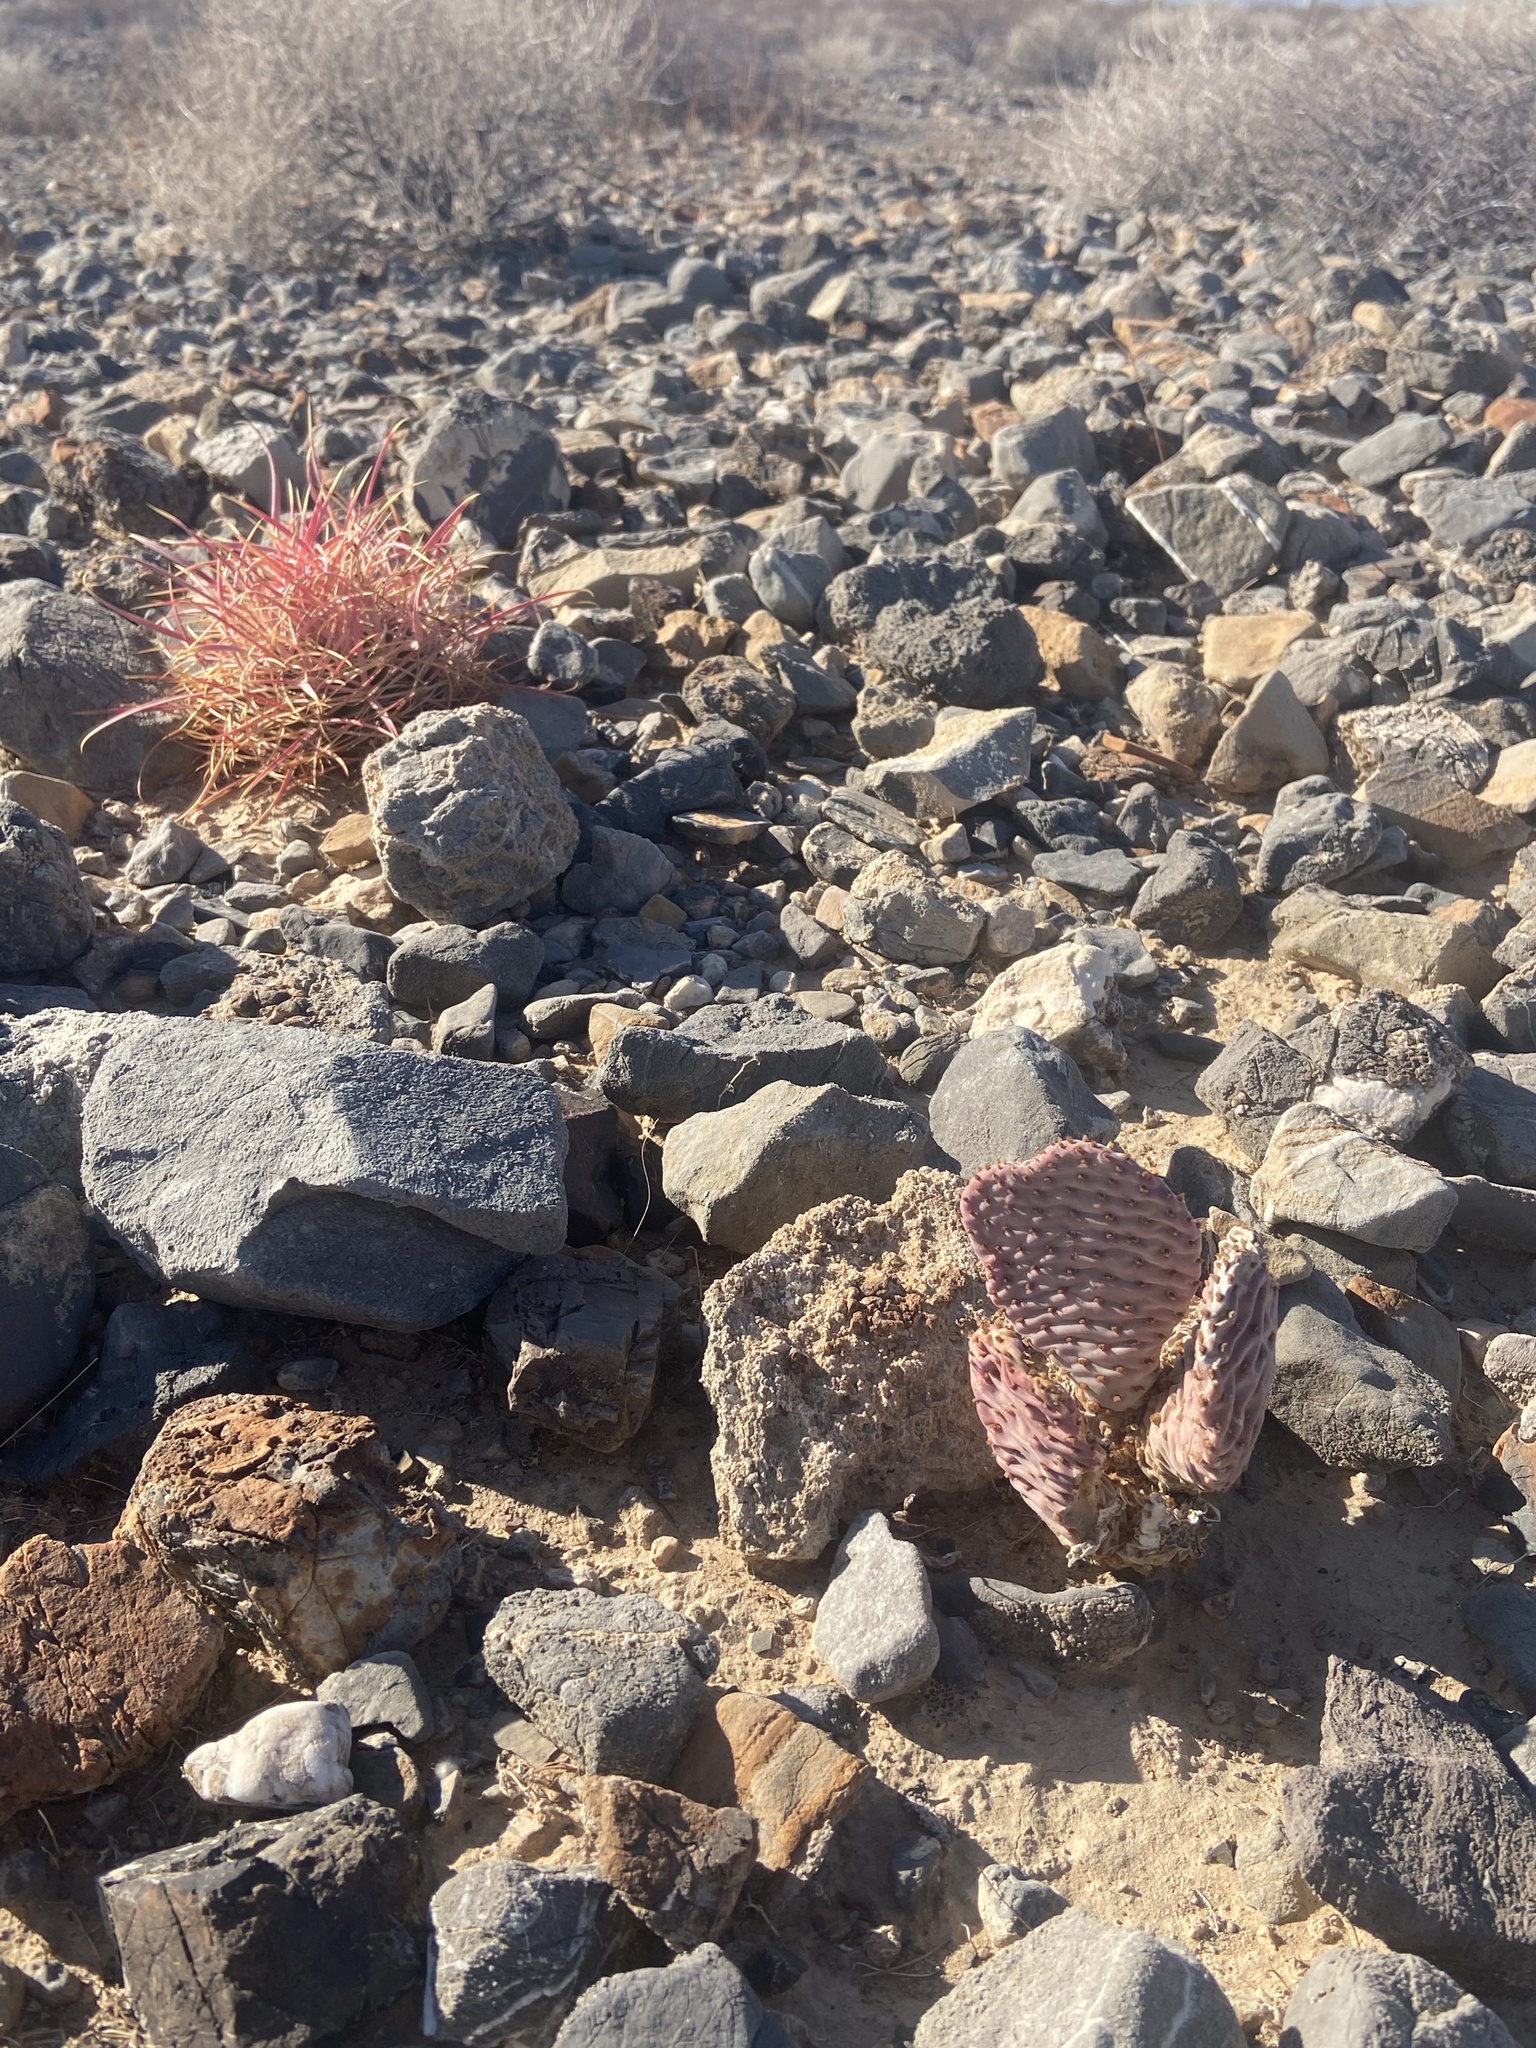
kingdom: Plantae
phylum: Tracheophyta
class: Magnoliopsida
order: Caryophyllales
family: Cactaceae
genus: Opuntia
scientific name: Opuntia basilaris
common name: Beavertail prickly-pear
